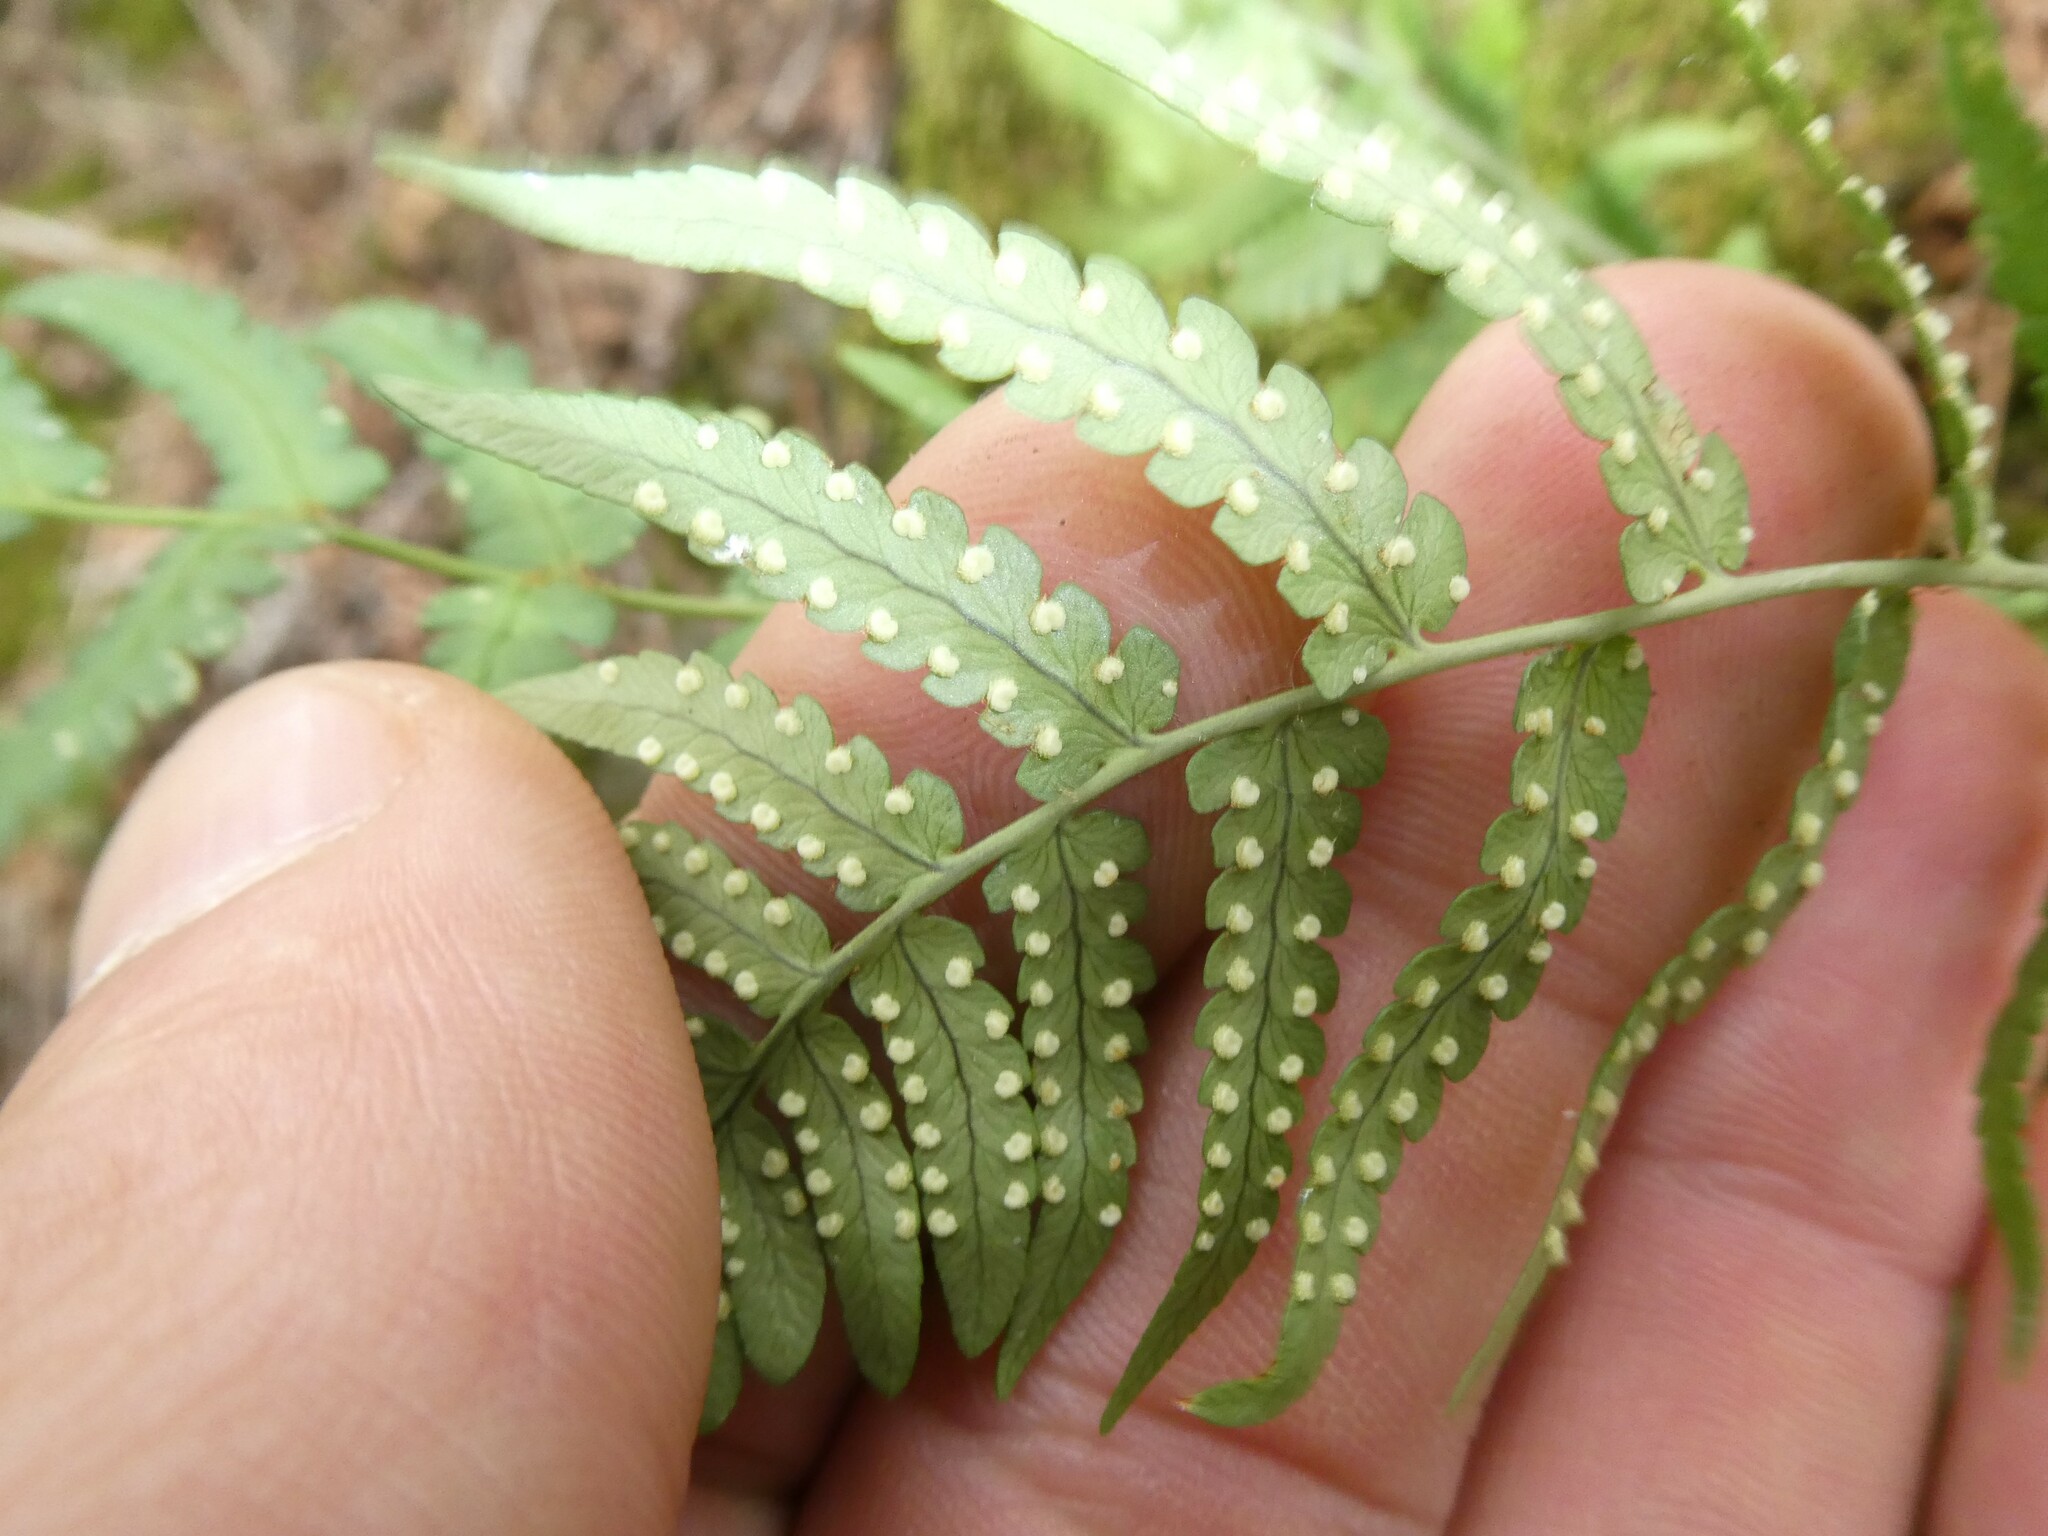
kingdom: Plantae
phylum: Tracheophyta
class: Polypodiopsida
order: Polypodiales
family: Dryopteridaceae
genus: Dryopteris
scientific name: Dryopteris marginalis
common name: Marginal wood fern
